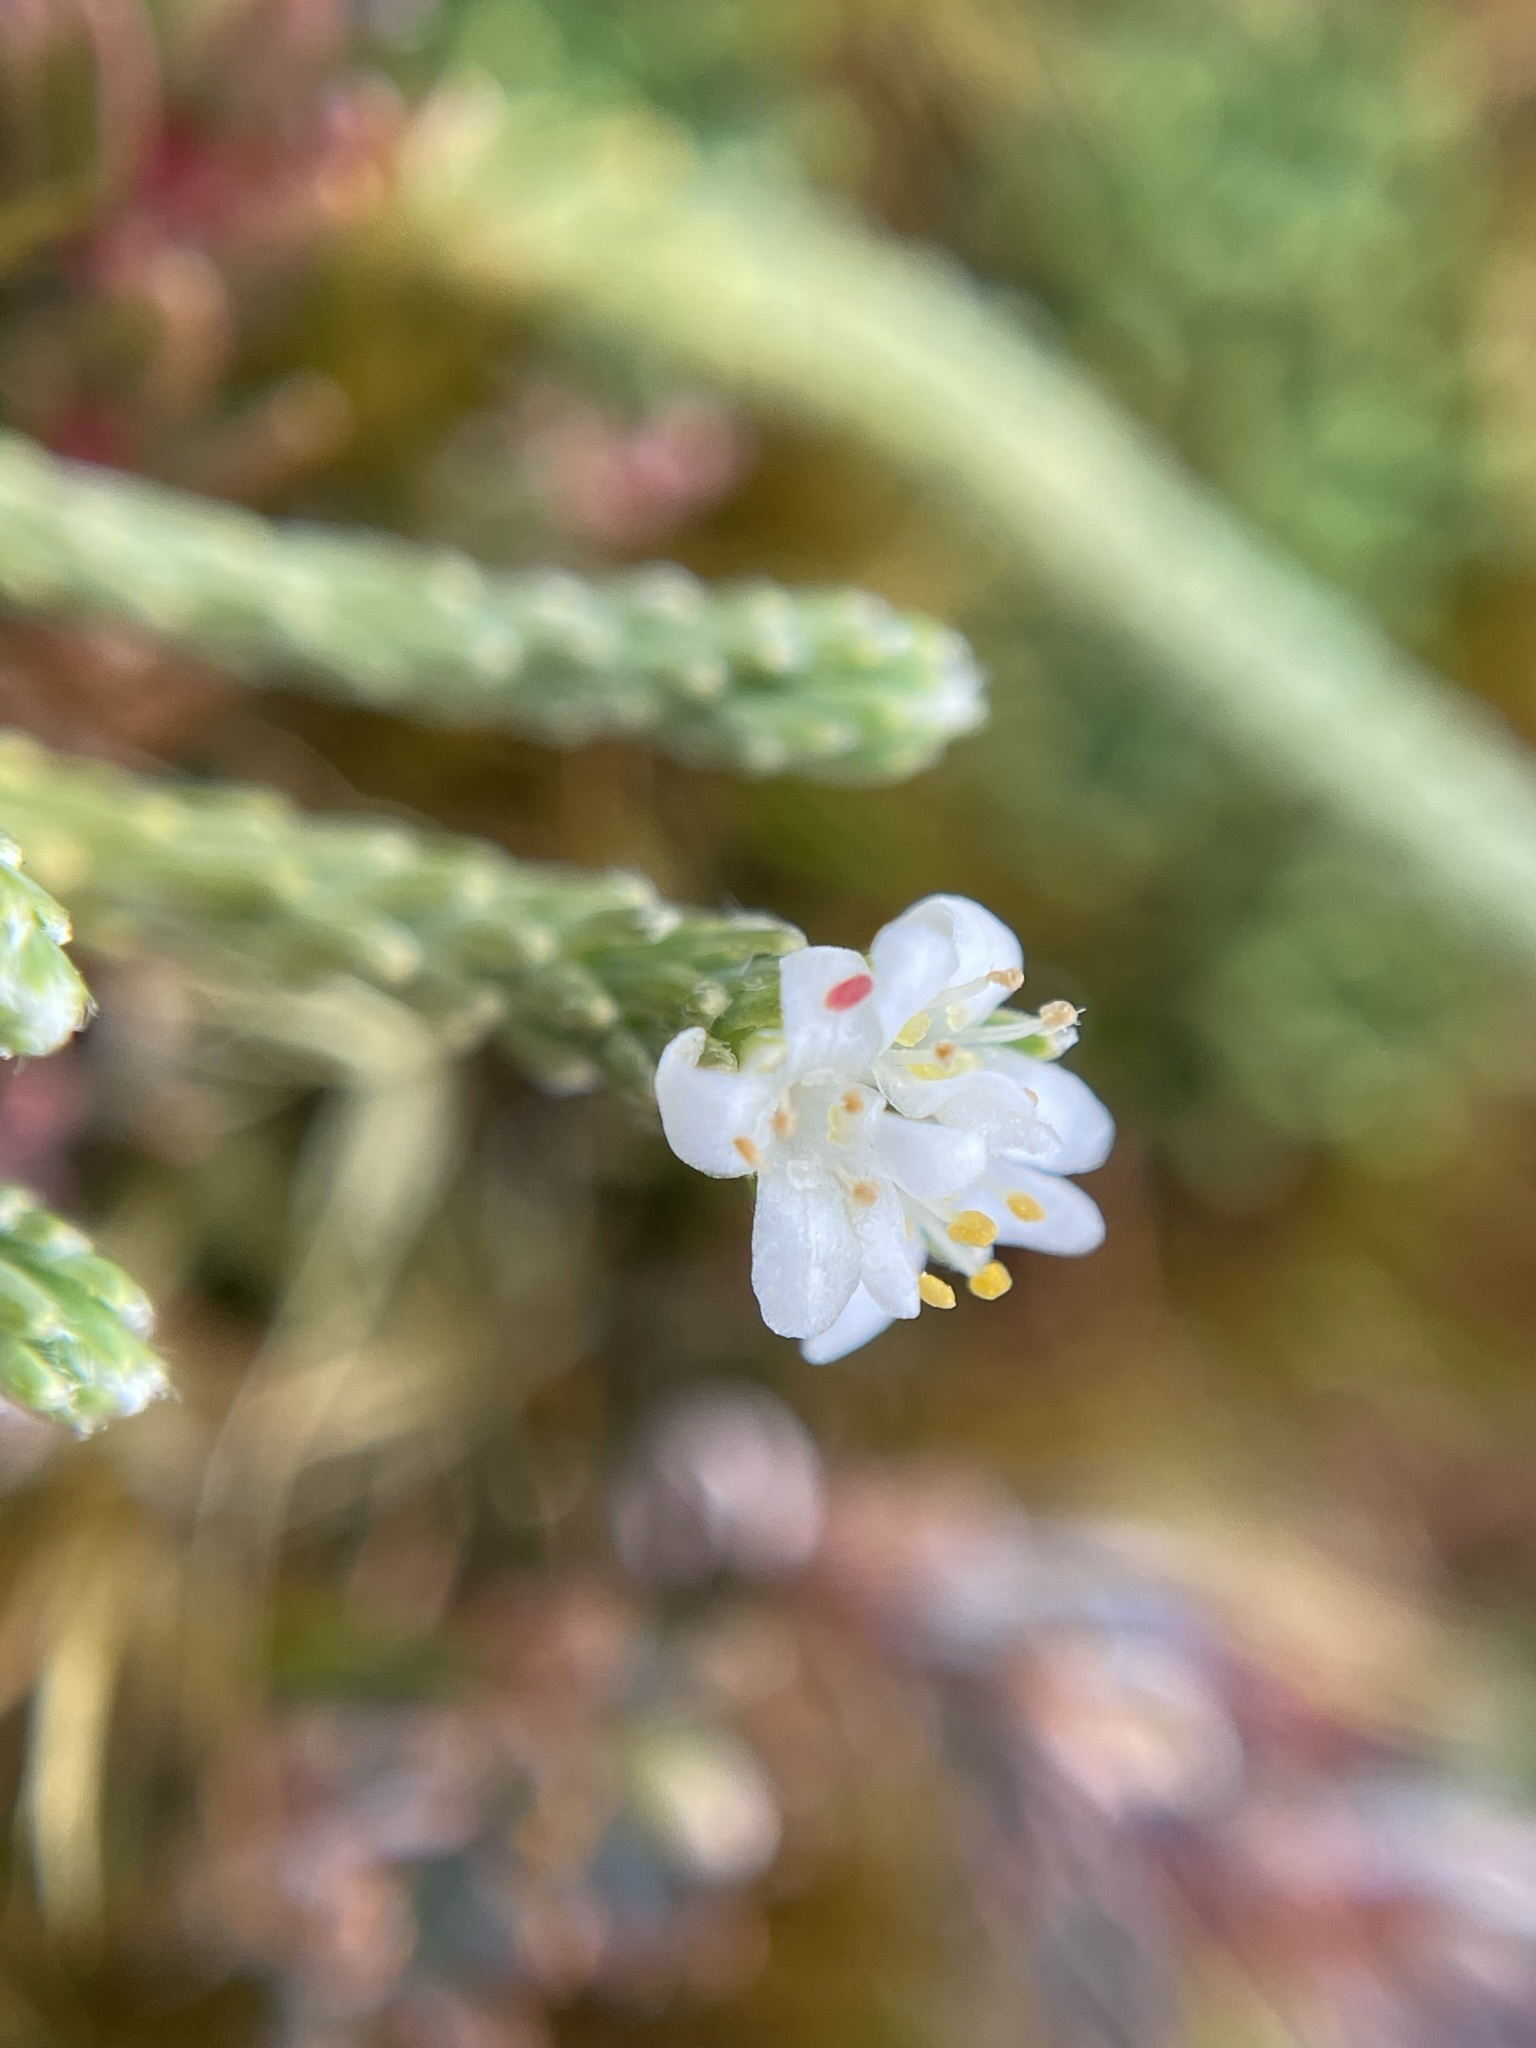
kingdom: Plantae
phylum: Tracheophyta
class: Magnoliopsida
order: Malvales
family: Thymelaeaceae
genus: Kelleria
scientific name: Kelleria dieffenbachii
